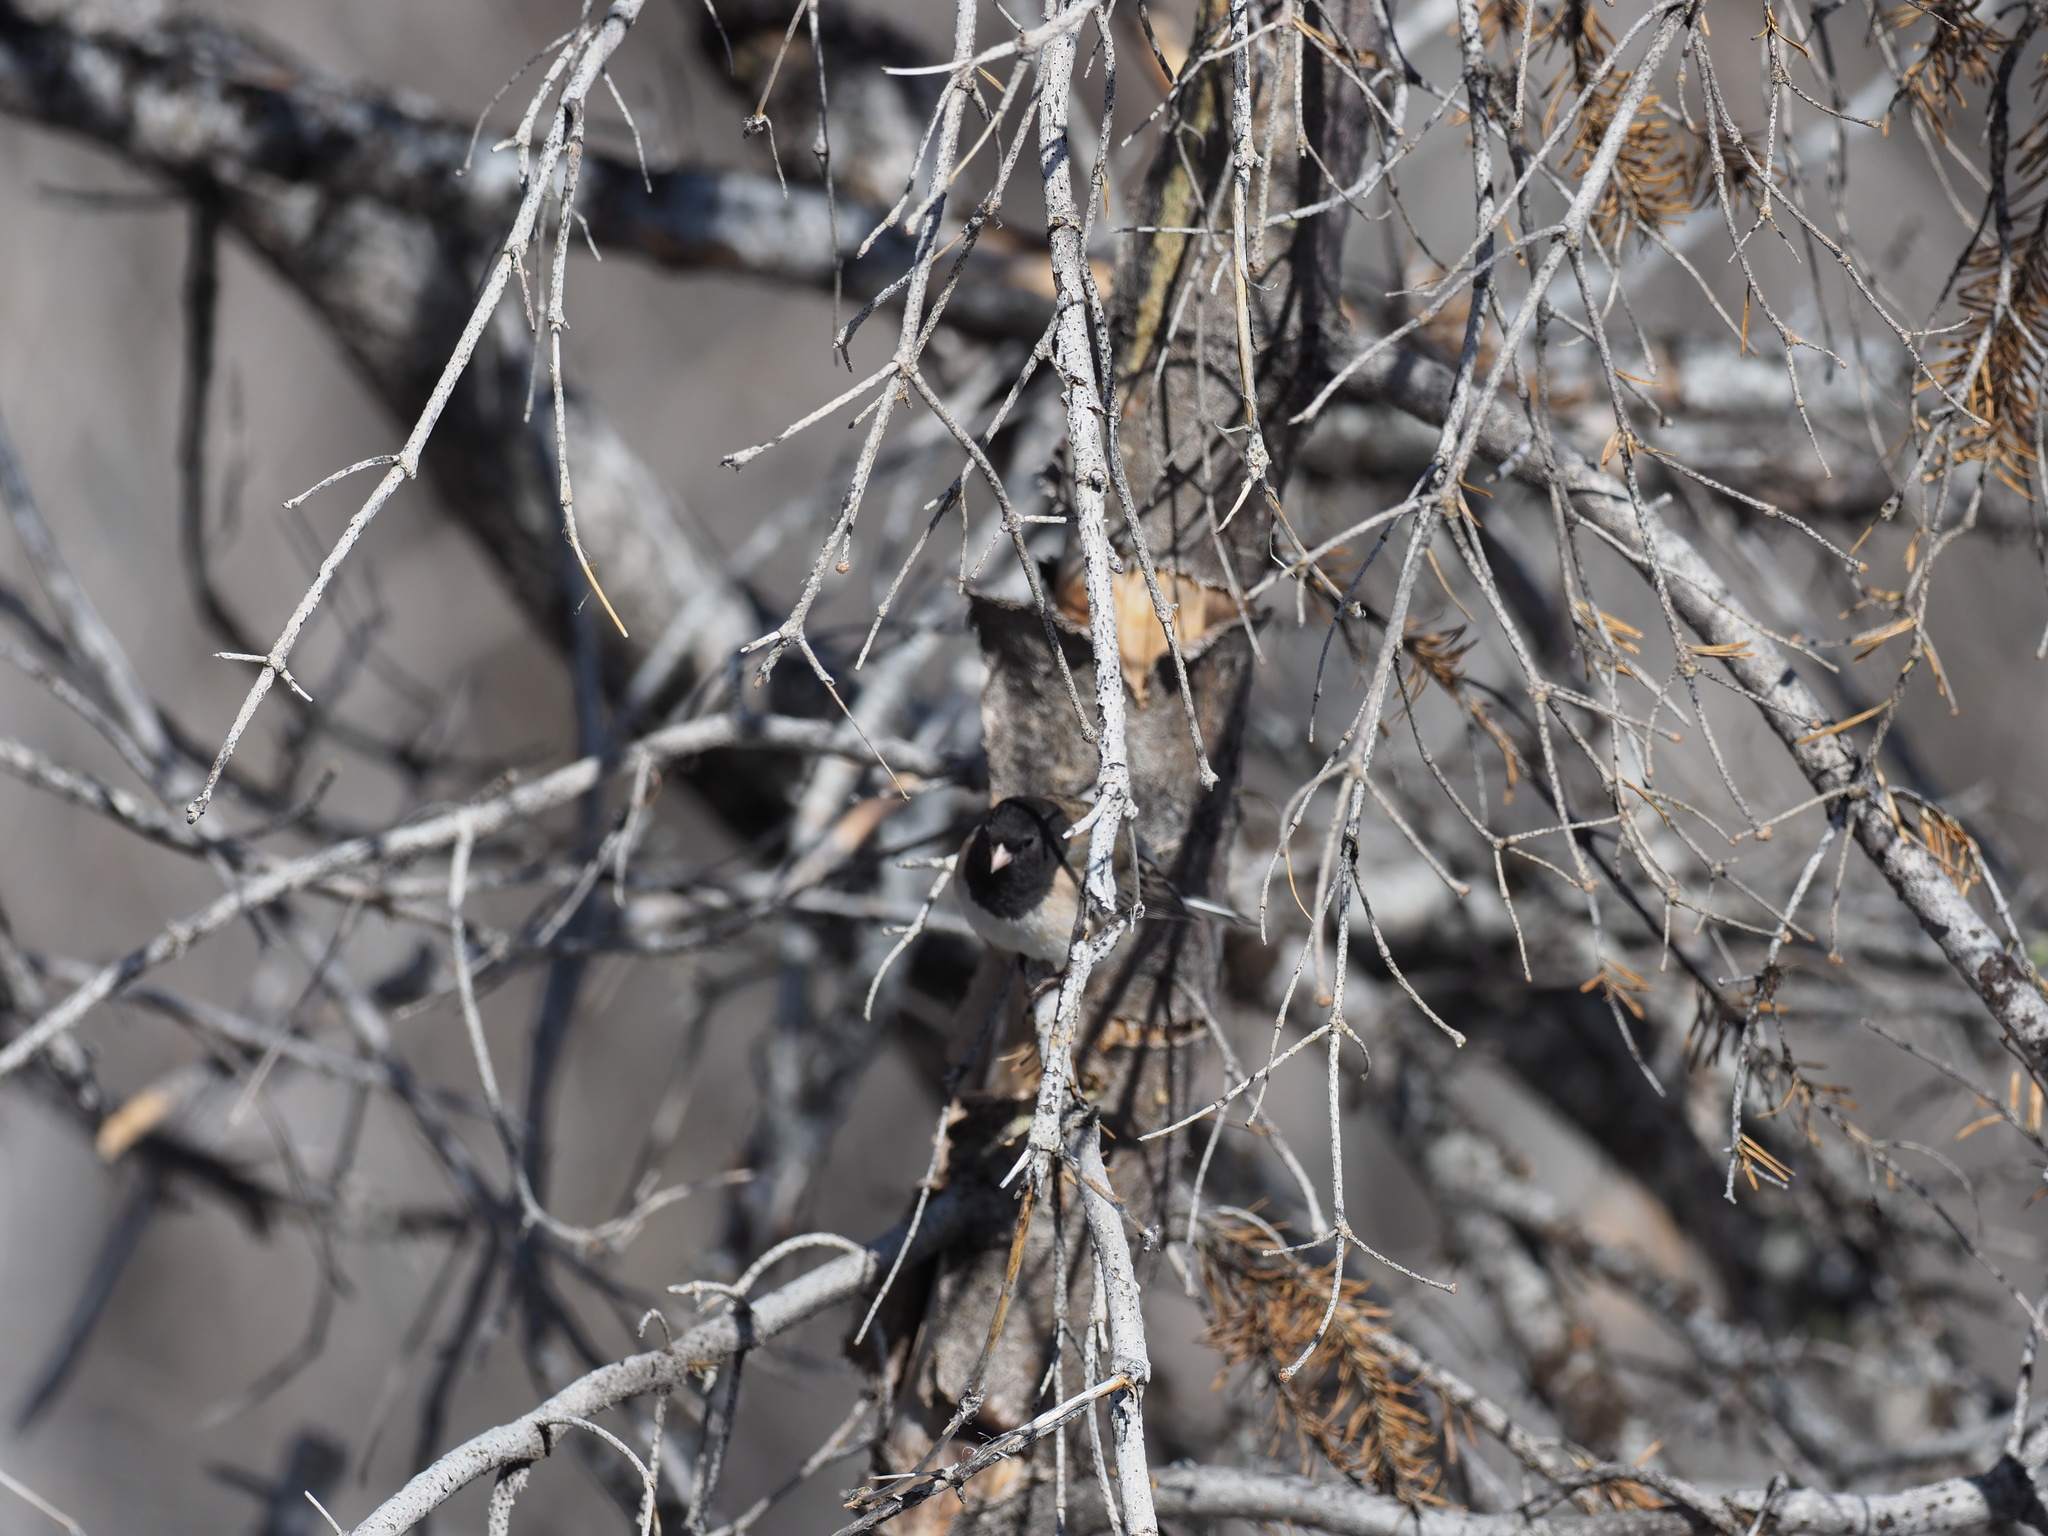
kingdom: Animalia
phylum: Chordata
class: Aves
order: Passeriformes
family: Passerellidae
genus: Junco
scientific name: Junco hyemalis
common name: Dark-eyed junco
